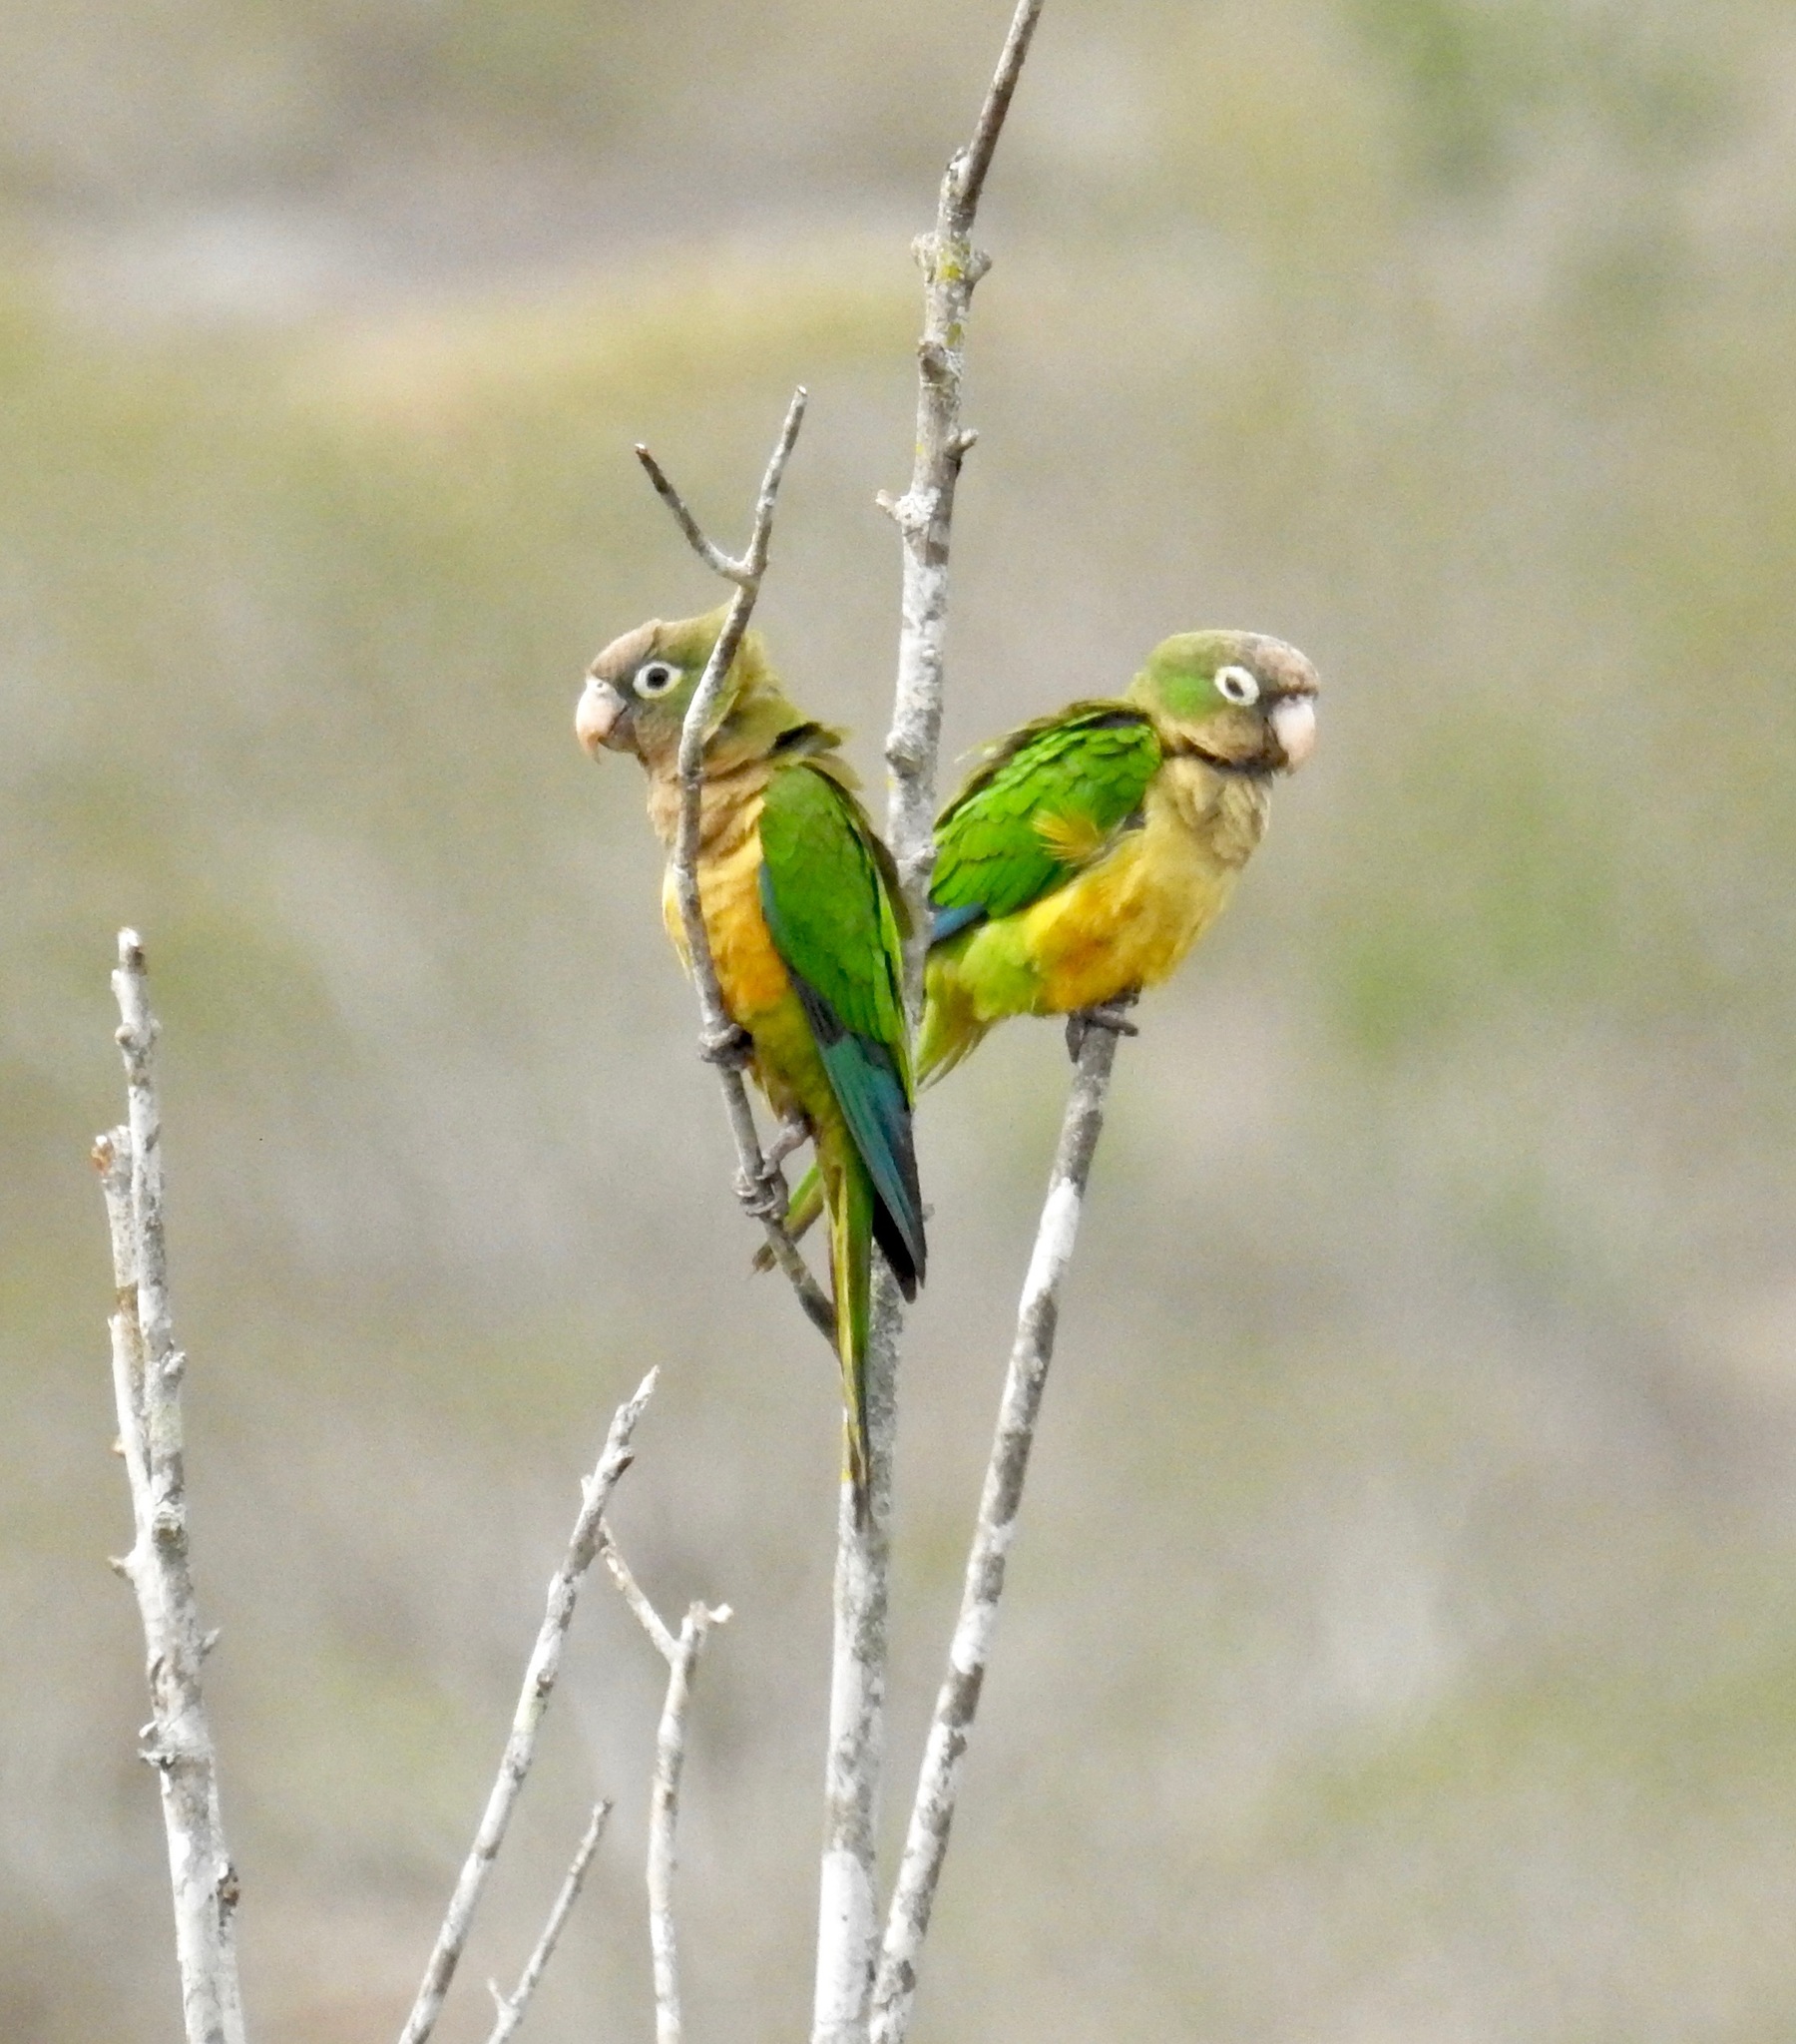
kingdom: Animalia
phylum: Chordata
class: Aves
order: Psittaciformes
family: Psittacidae
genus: Aratinga
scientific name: Aratinga cactorum
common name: Caatinga parakeet
